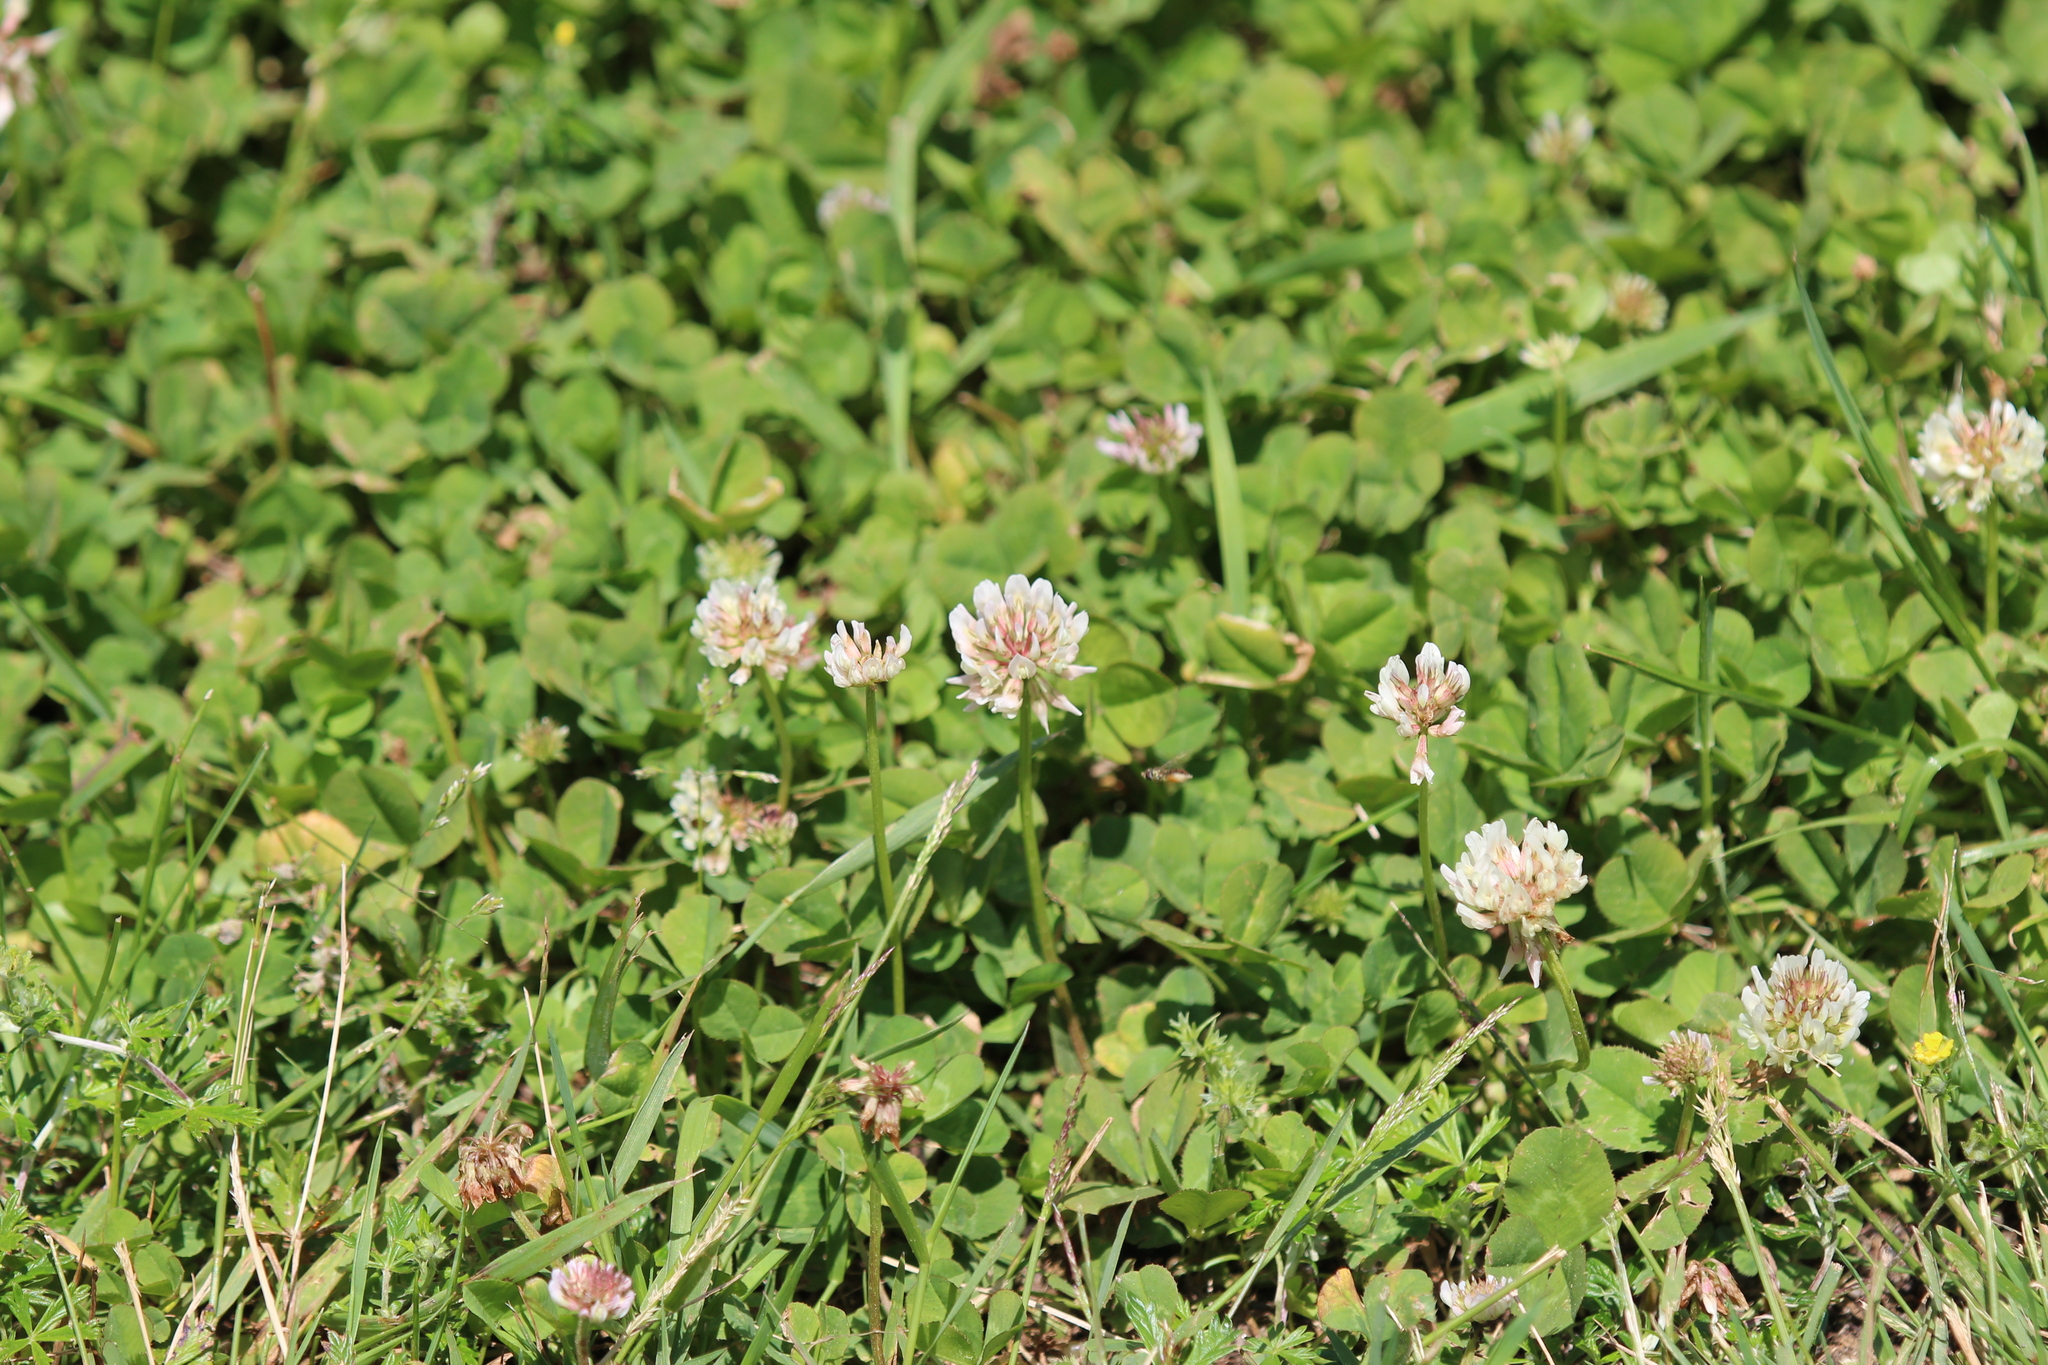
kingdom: Plantae
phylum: Tracheophyta
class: Magnoliopsida
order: Fabales
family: Fabaceae
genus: Trifolium
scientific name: Trifolium repens
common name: White clover
